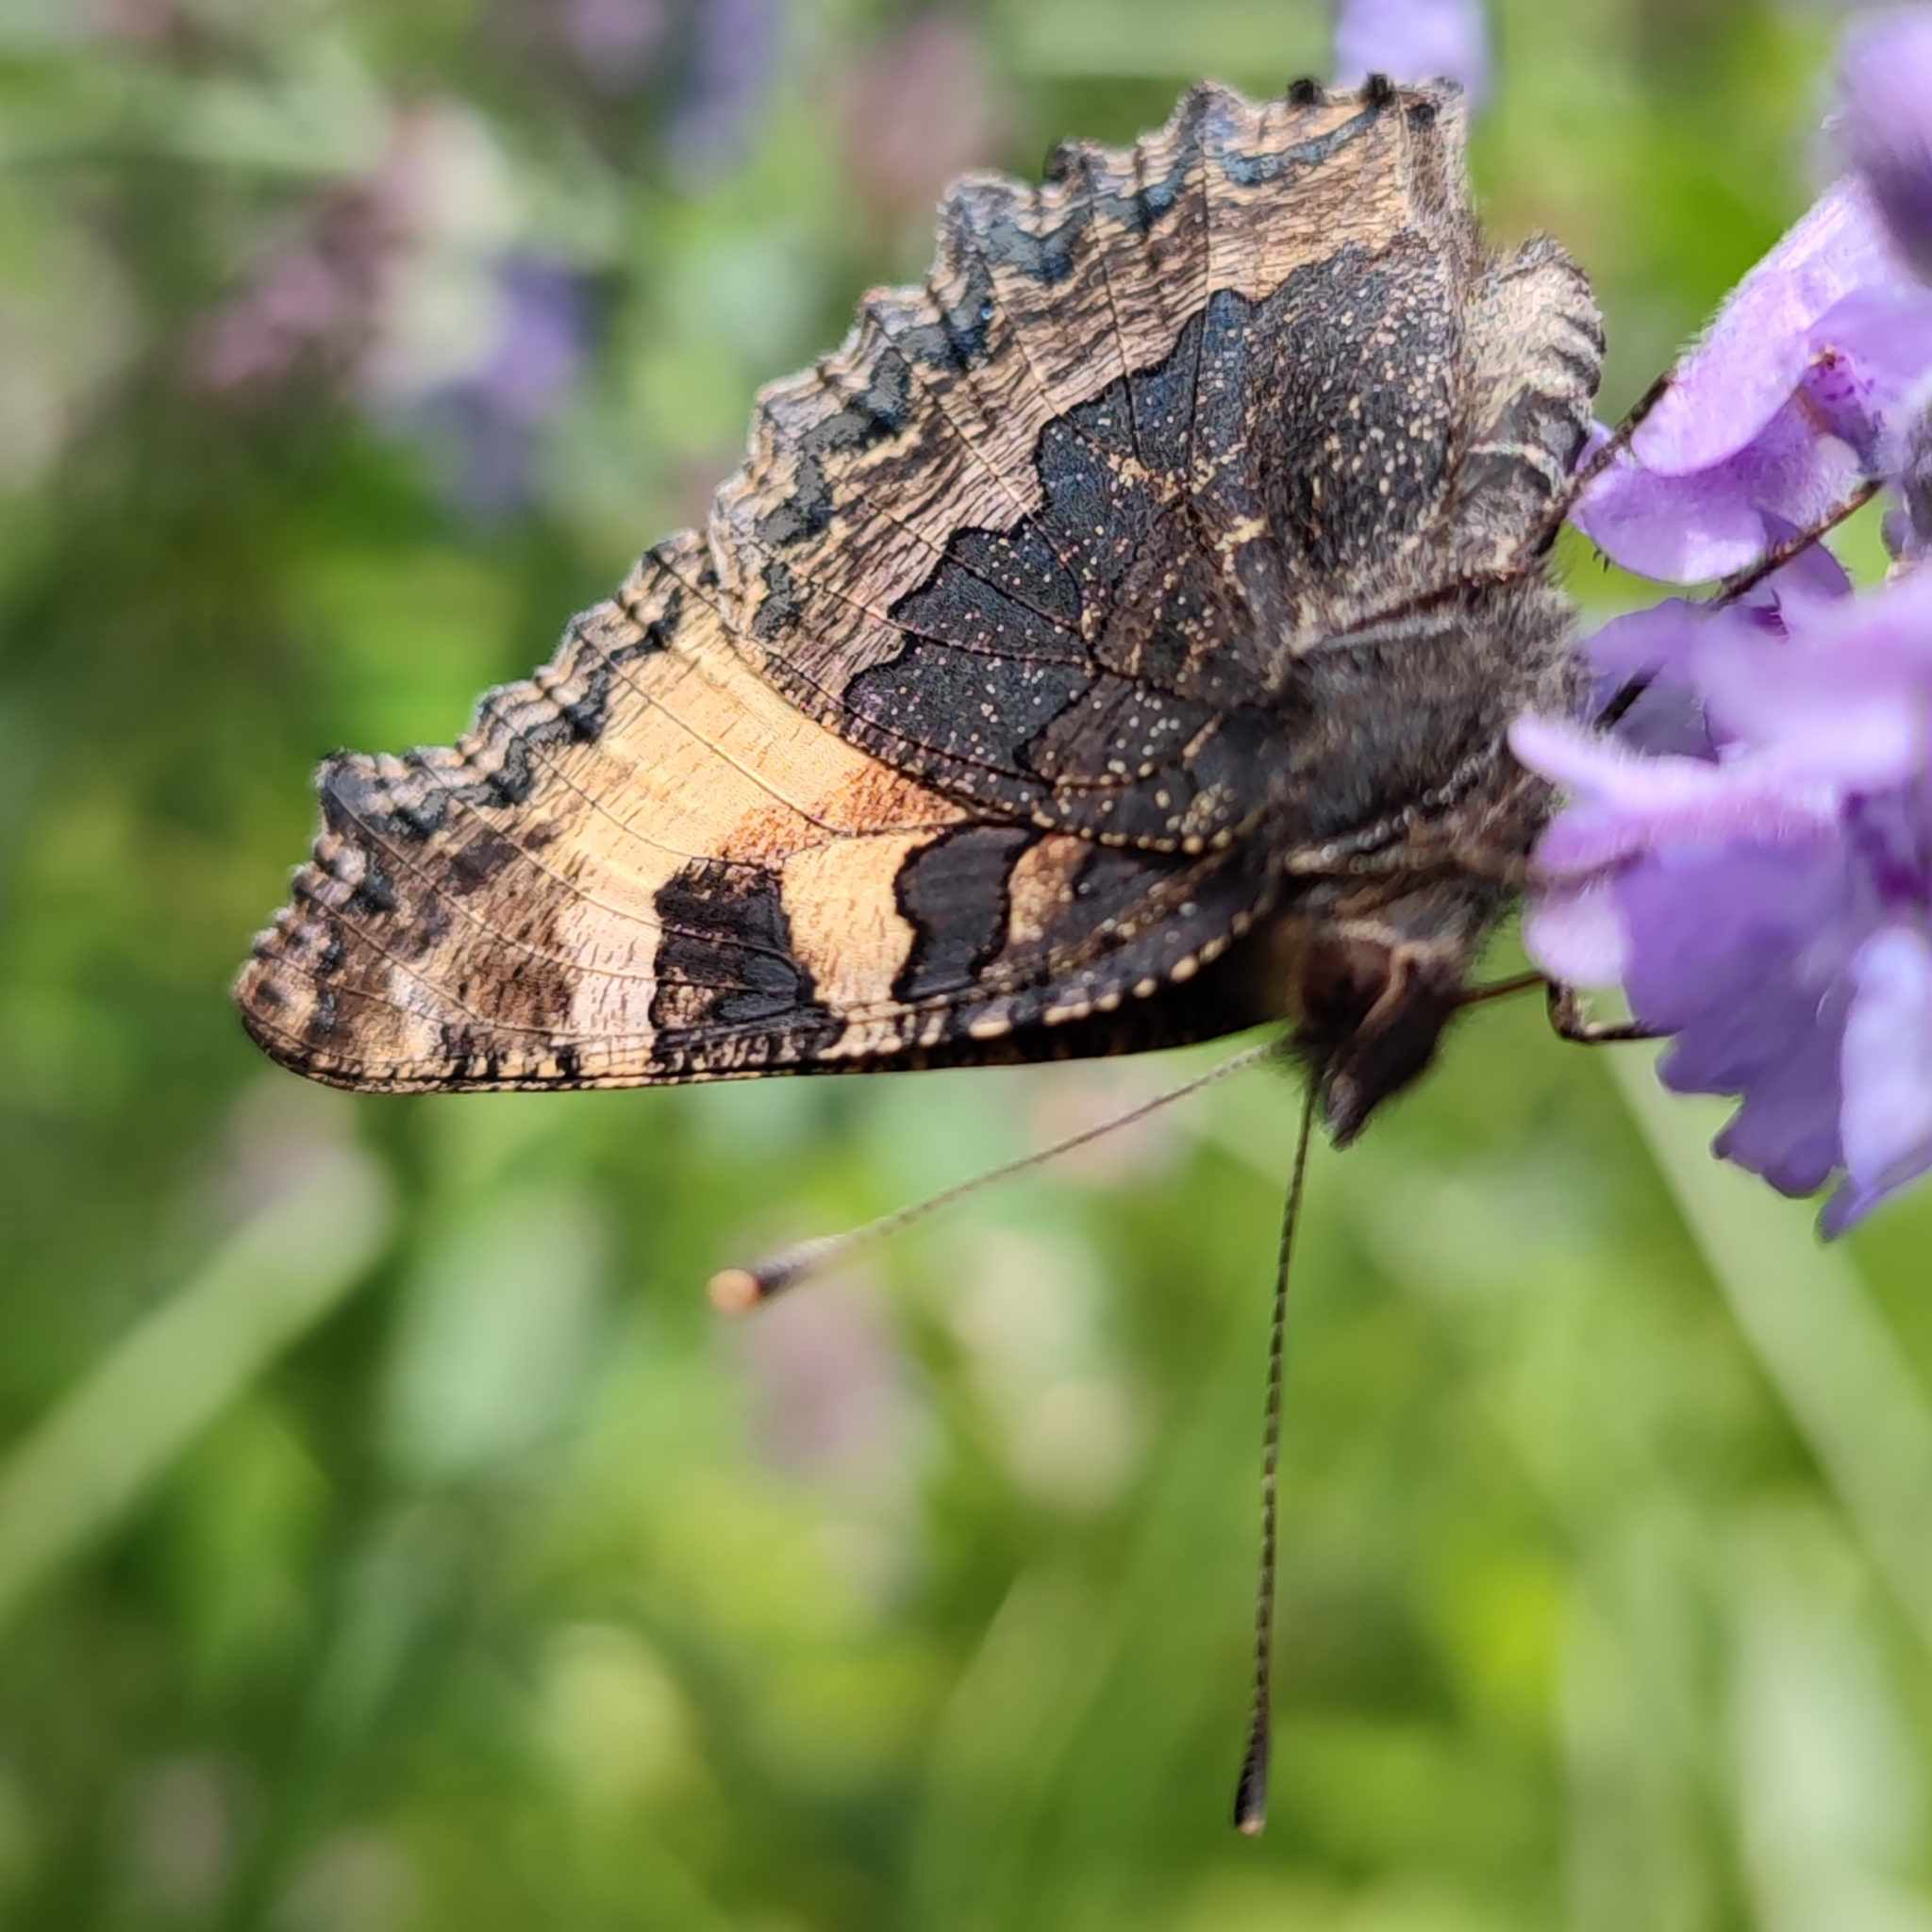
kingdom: Animalia
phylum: Arthropoda
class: Insecta
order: Lepidoptera
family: Nymphalidae
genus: Aglais
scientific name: Aglais urticae
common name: Small tortoiseshell
